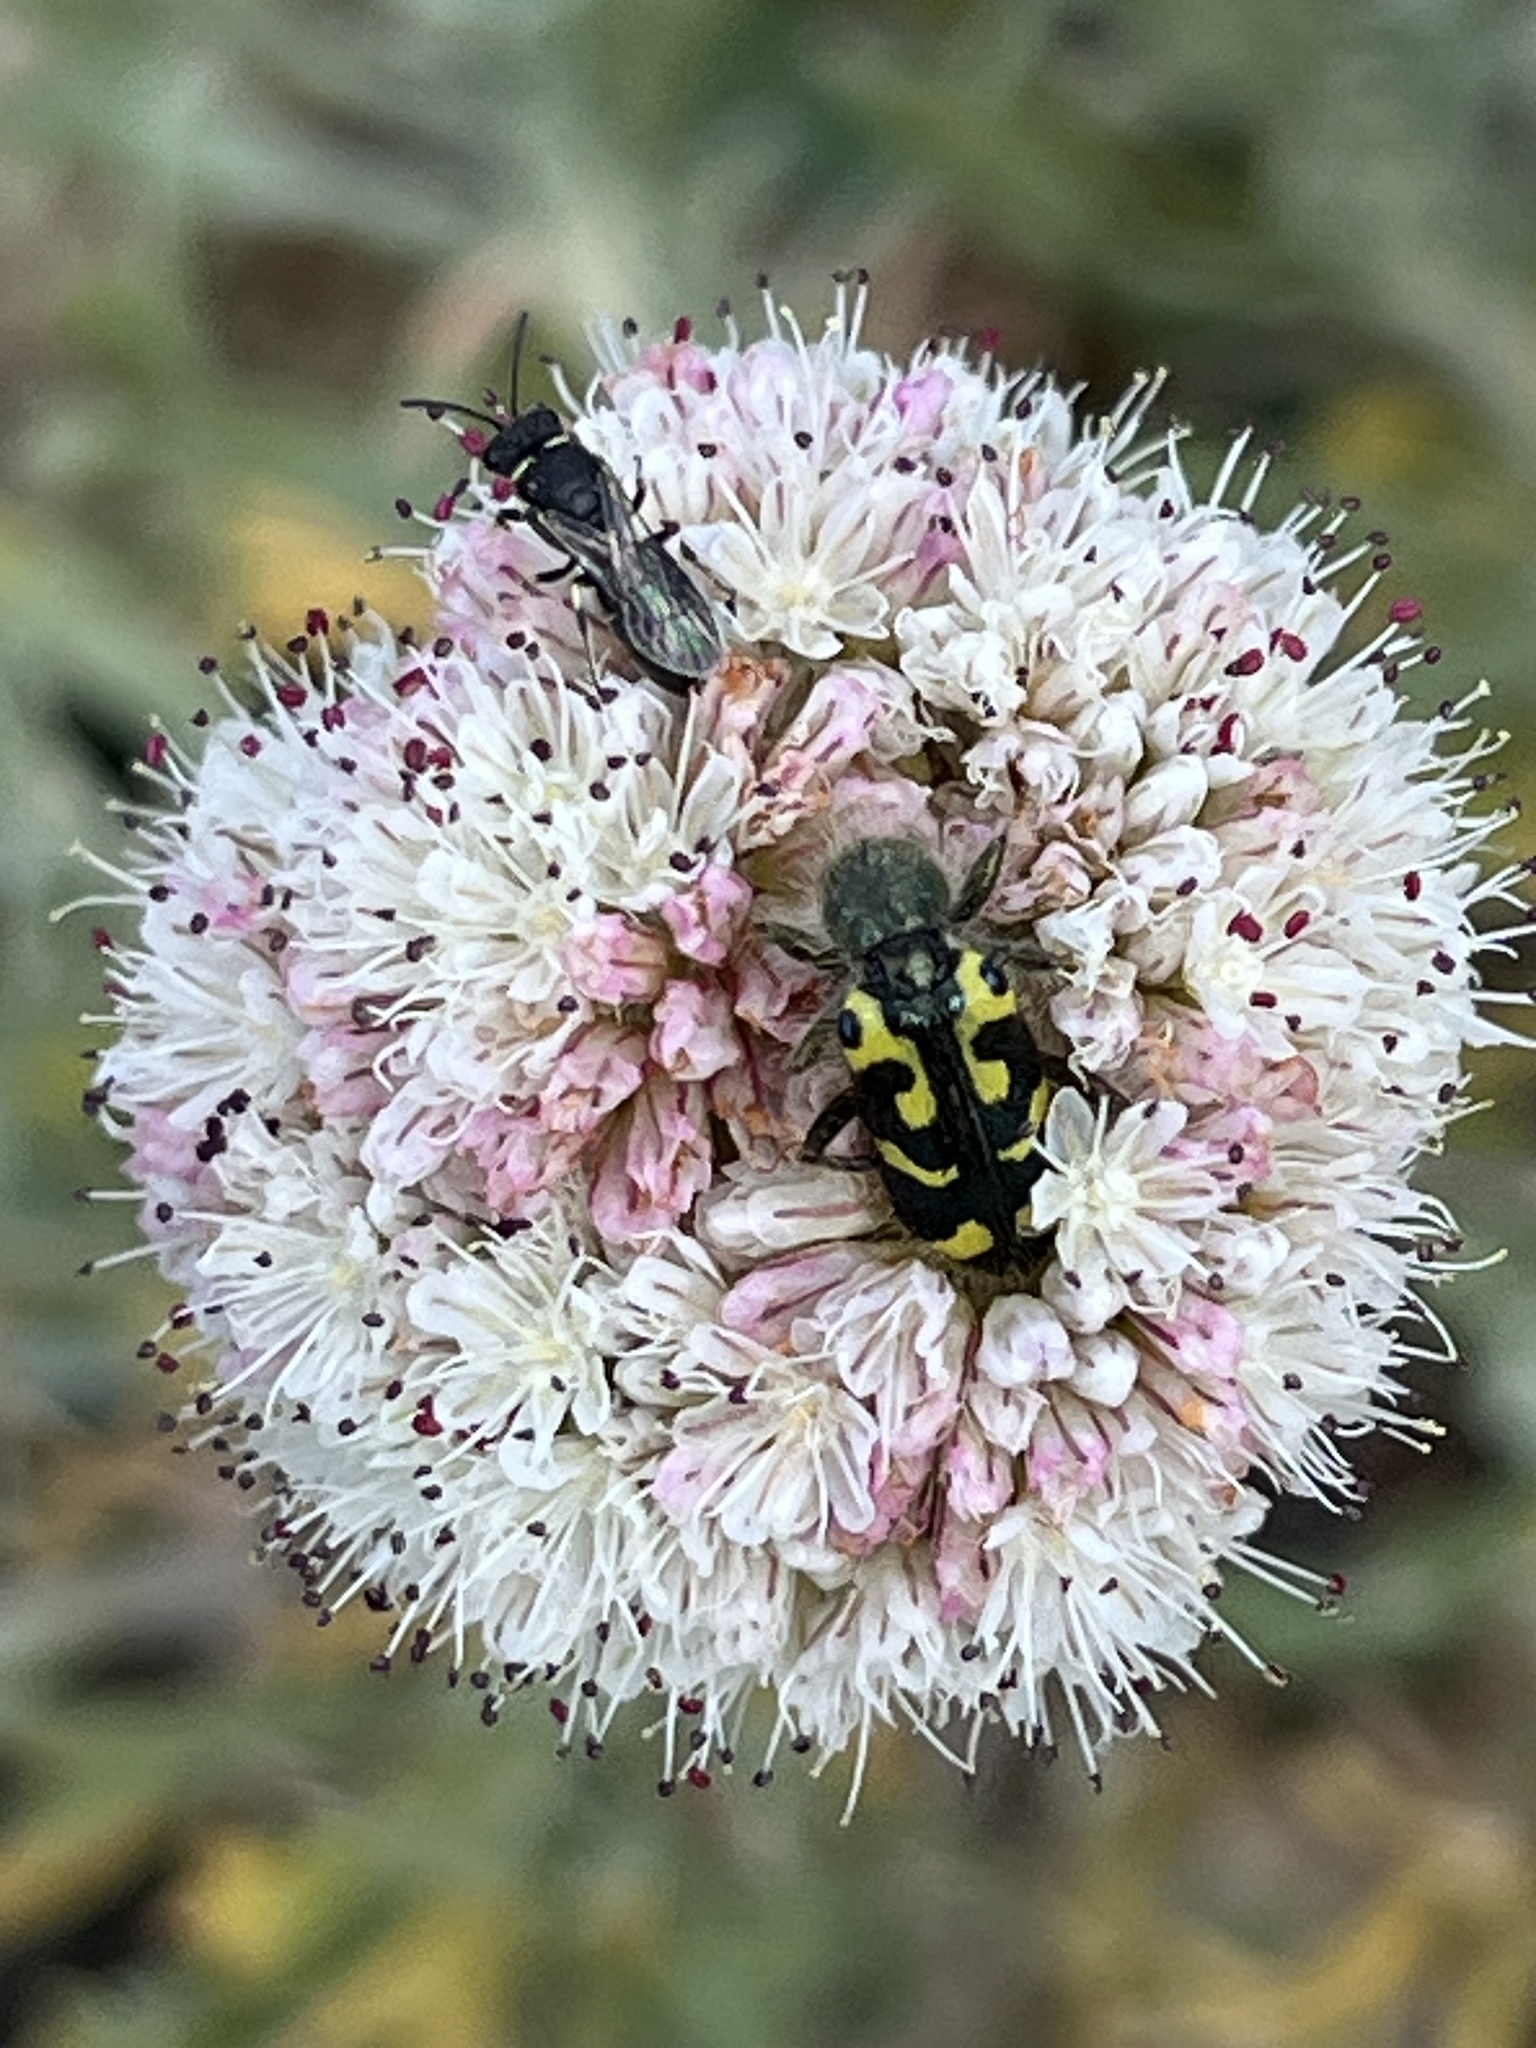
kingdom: Animalia
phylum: Arthropoda
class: Insecta
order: Coleoptera
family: Cleridae
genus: Trichodes
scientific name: Trichodes ornatus
